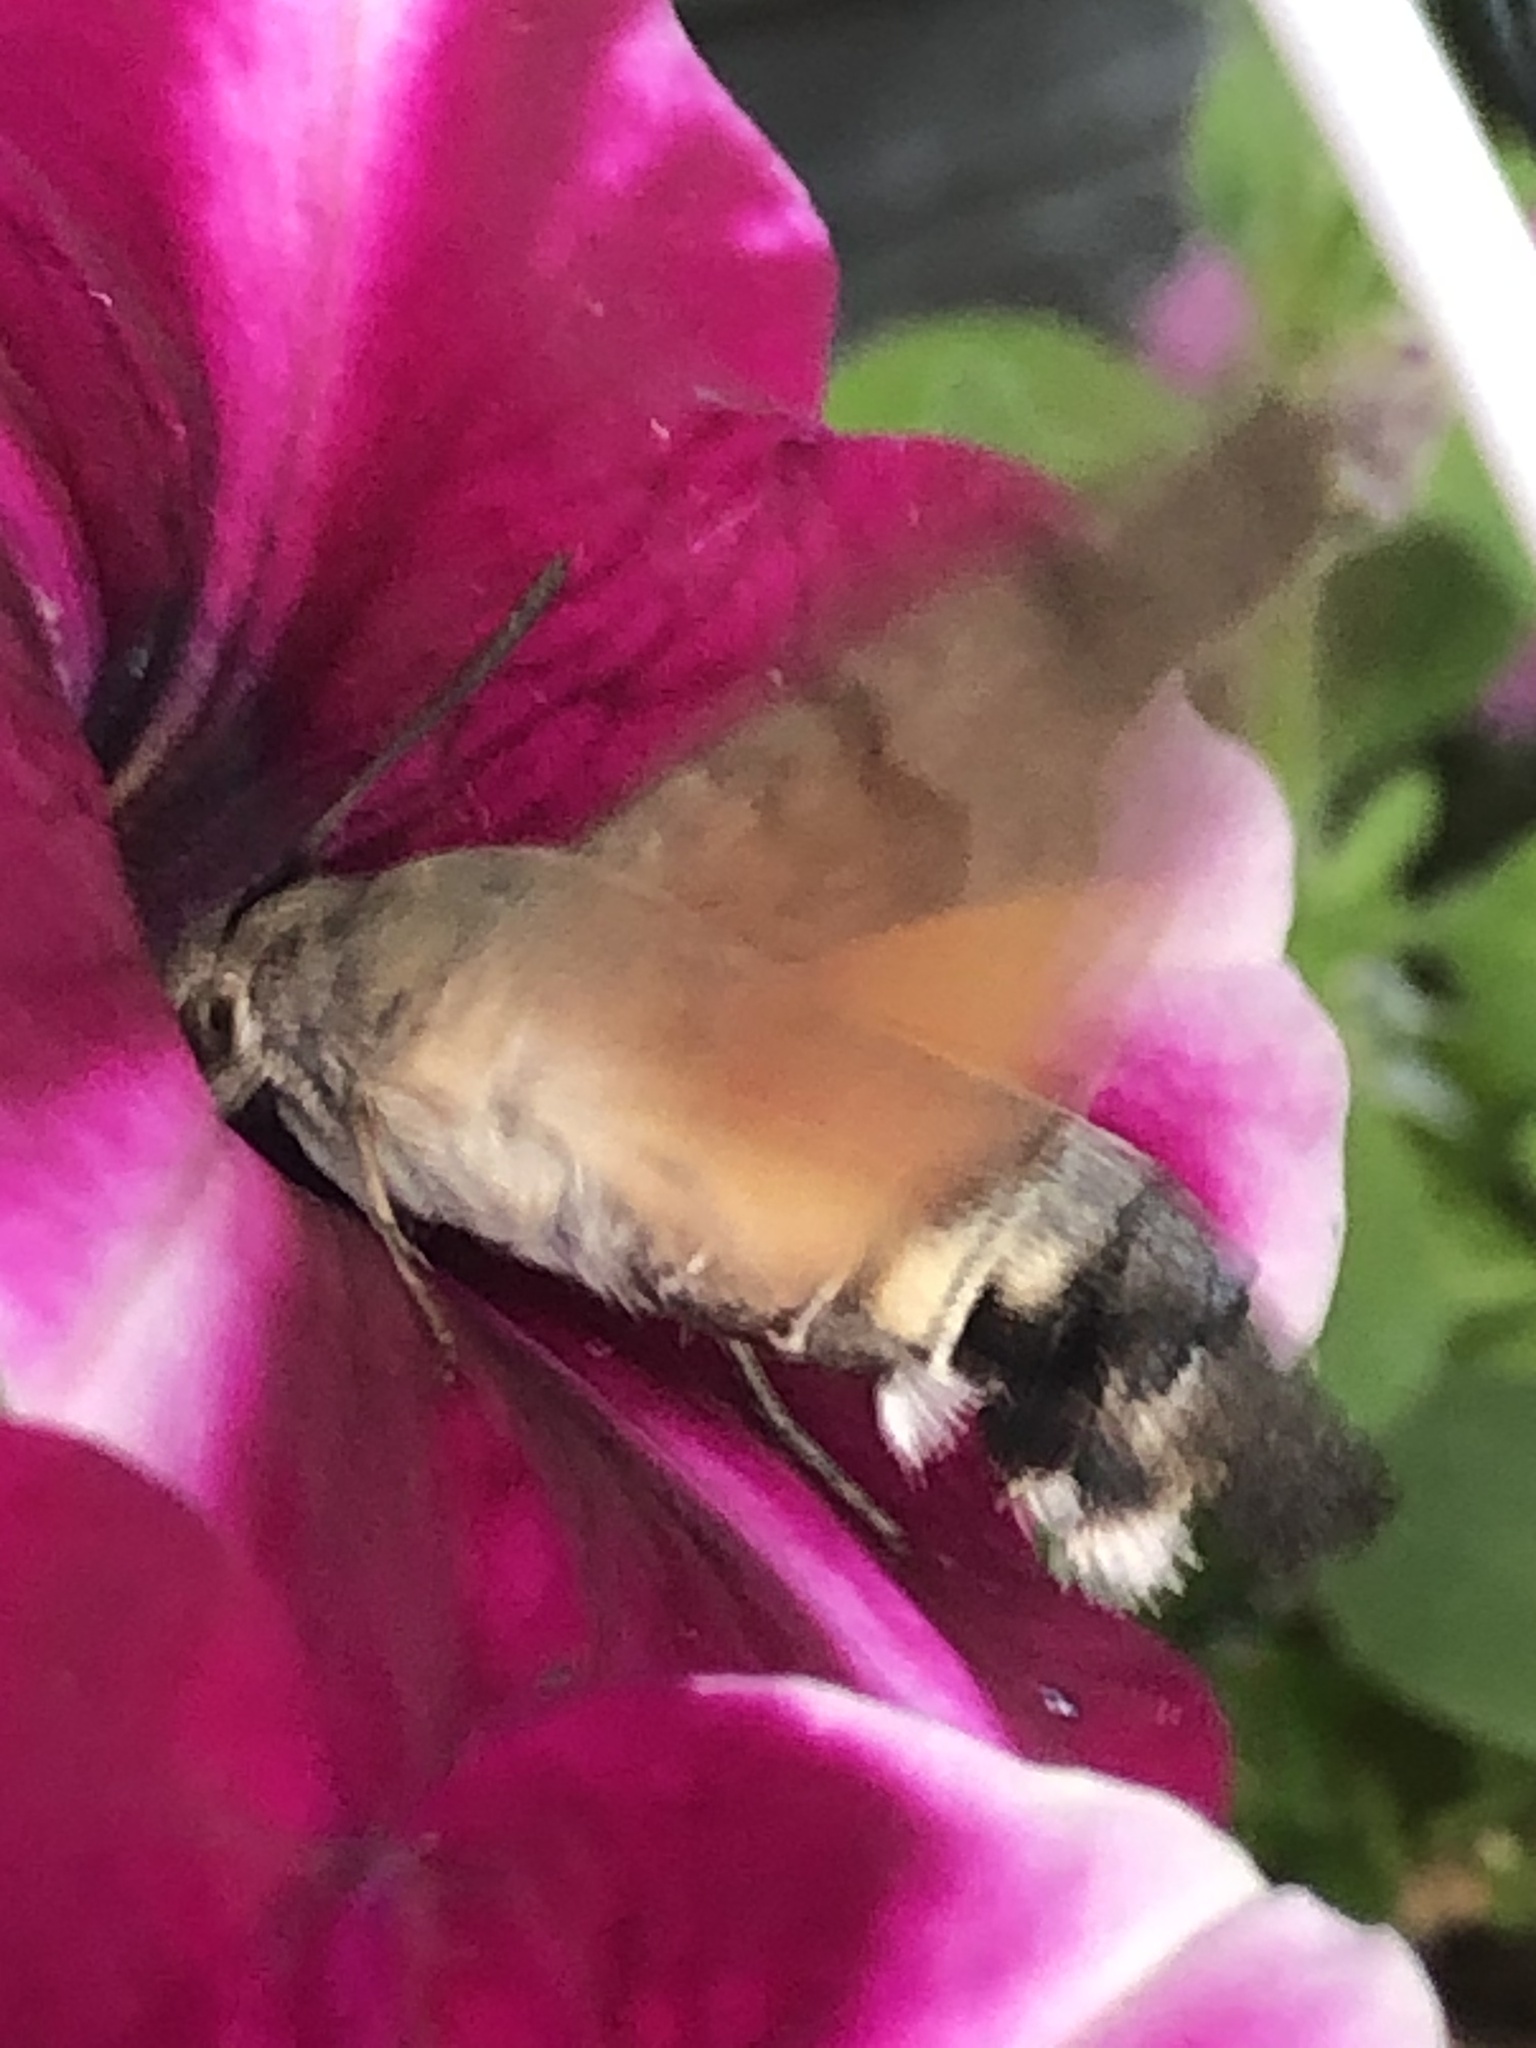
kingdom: Animalia
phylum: Arthropoda
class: Insecta
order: Lepidoptera
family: Sphingidae
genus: Macroglossum
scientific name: Macroglossum stellatarum
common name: Humming-bird hawk-moth
